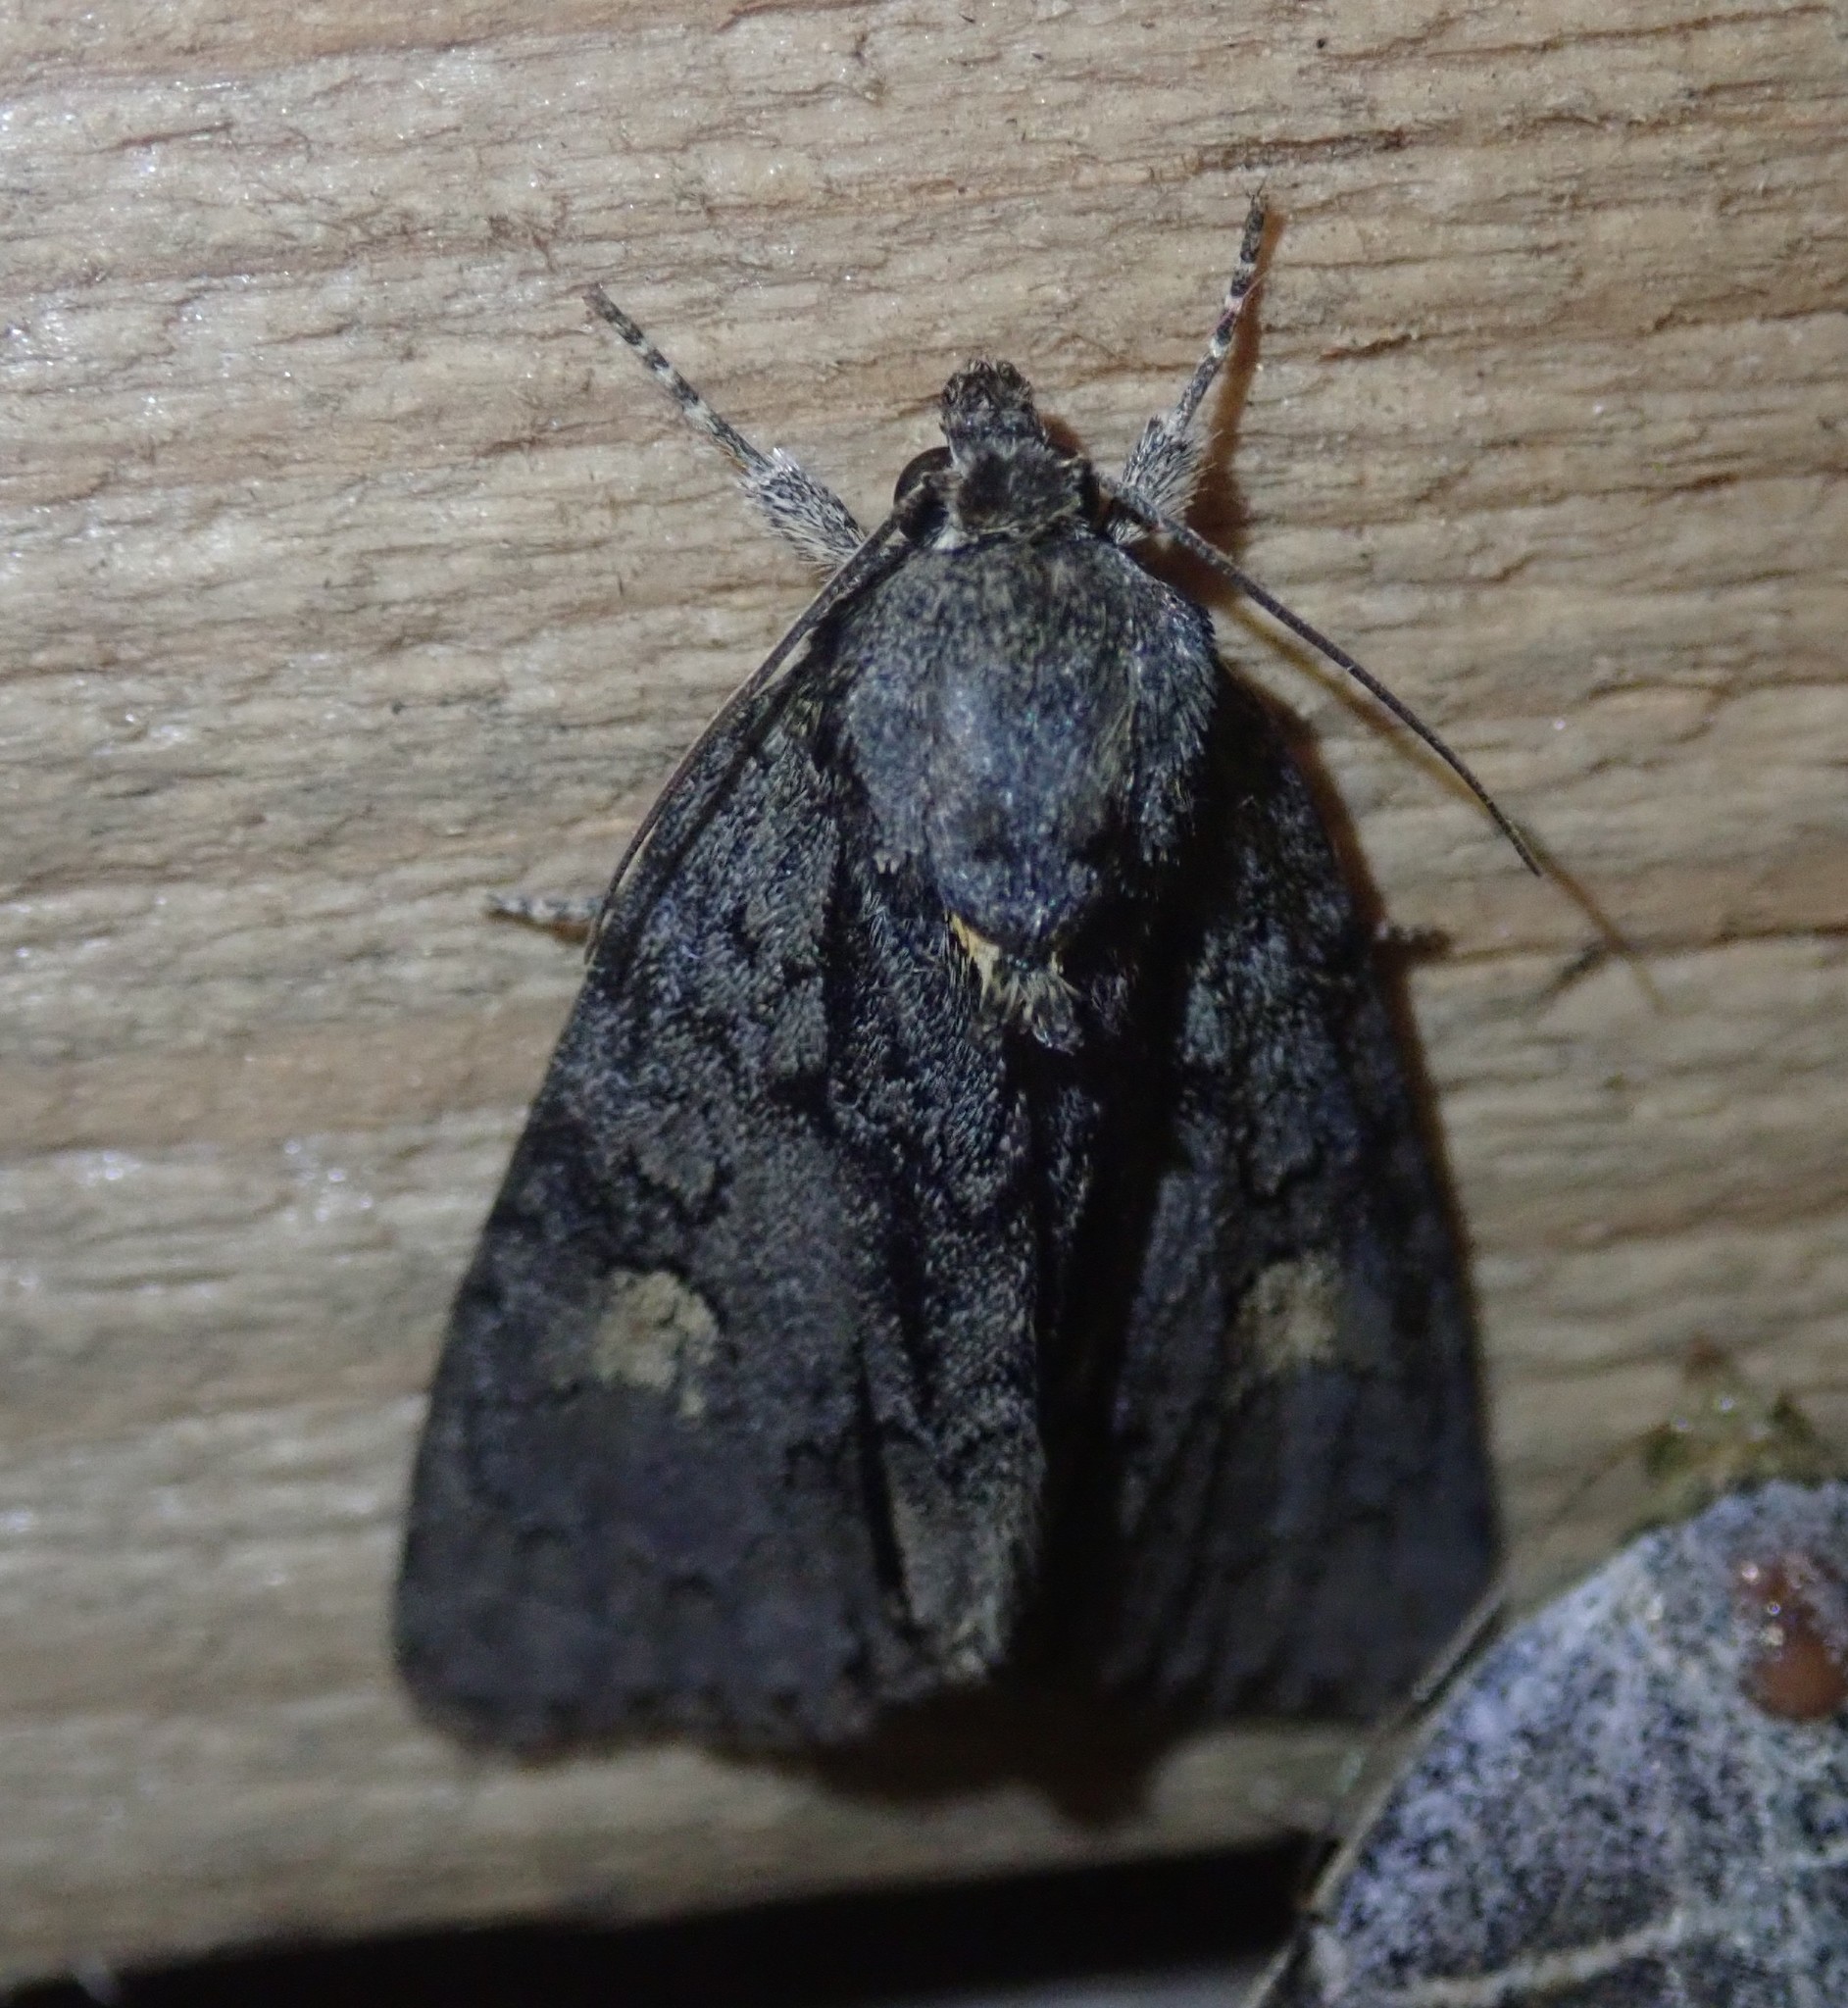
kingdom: Animalia
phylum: Arthropoda
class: Insecta
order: Lepidoptera
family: Noctuidae
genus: Acronicta
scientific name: Acronicta strigosa
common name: Marsh dagger
